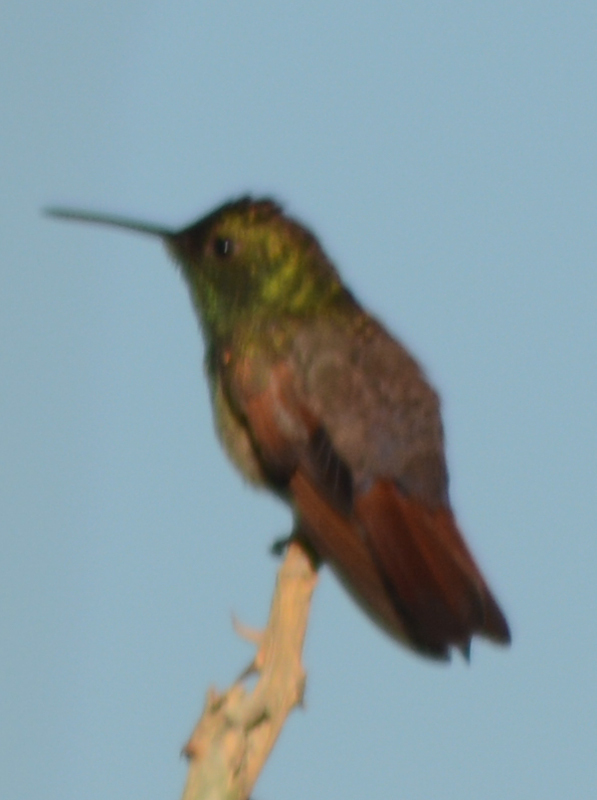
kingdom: Animalia
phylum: Chordata
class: Aves
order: Apodiformes
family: Trochilidae
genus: Saucerottia
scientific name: Saucerottia beryllina
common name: Berylline hummingbird
